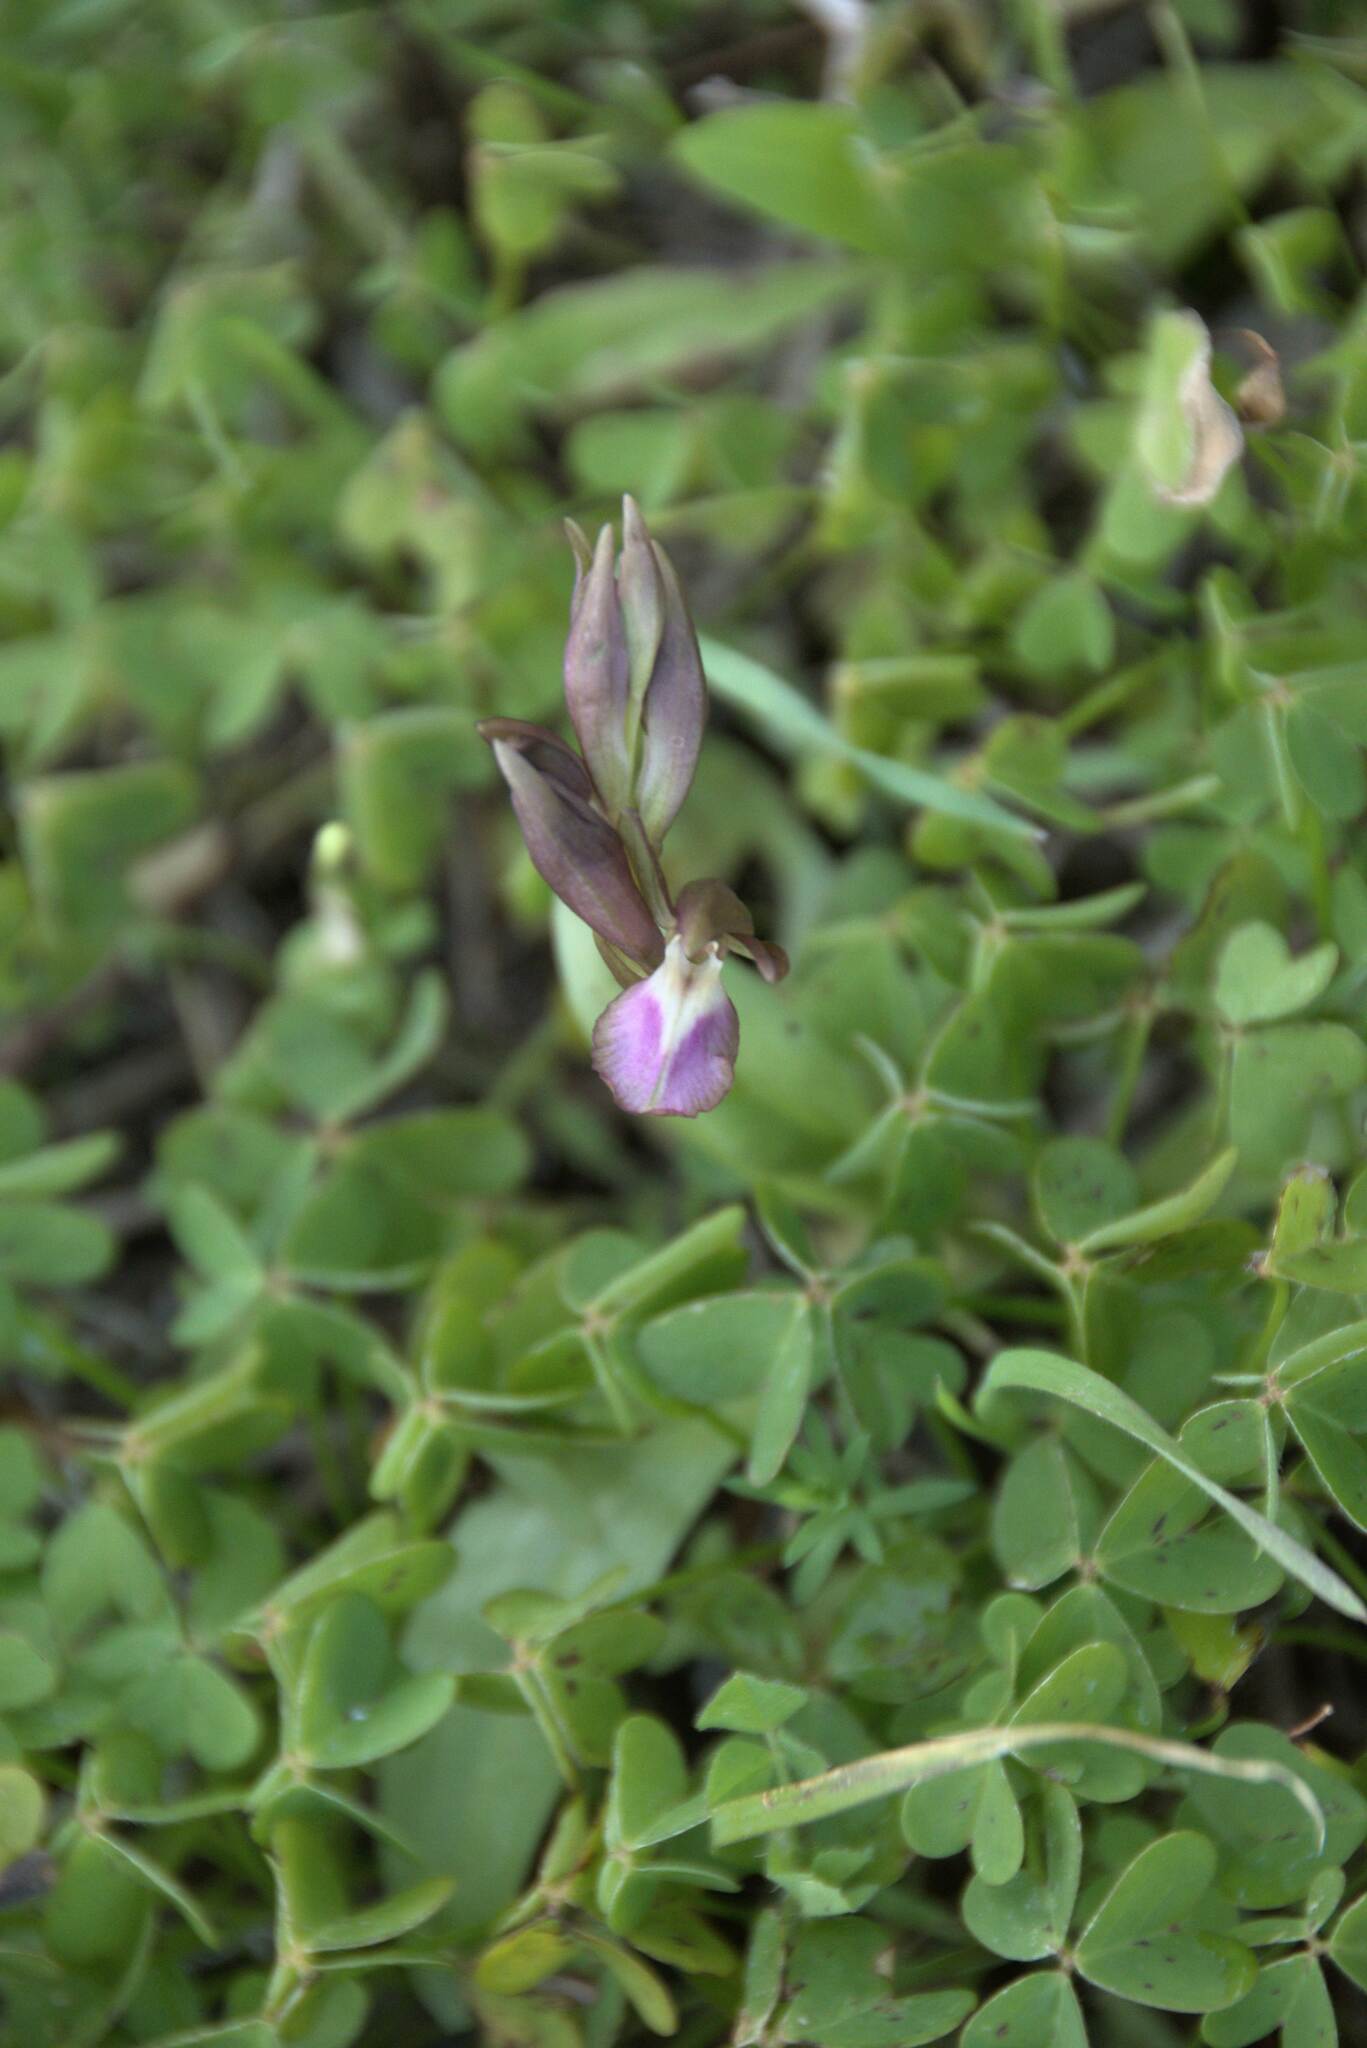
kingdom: Plantae
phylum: Tracheophyta
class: Liliopsida
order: Asparagales
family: Orchidaceae
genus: Anacamptis
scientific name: Anacamptis collina
